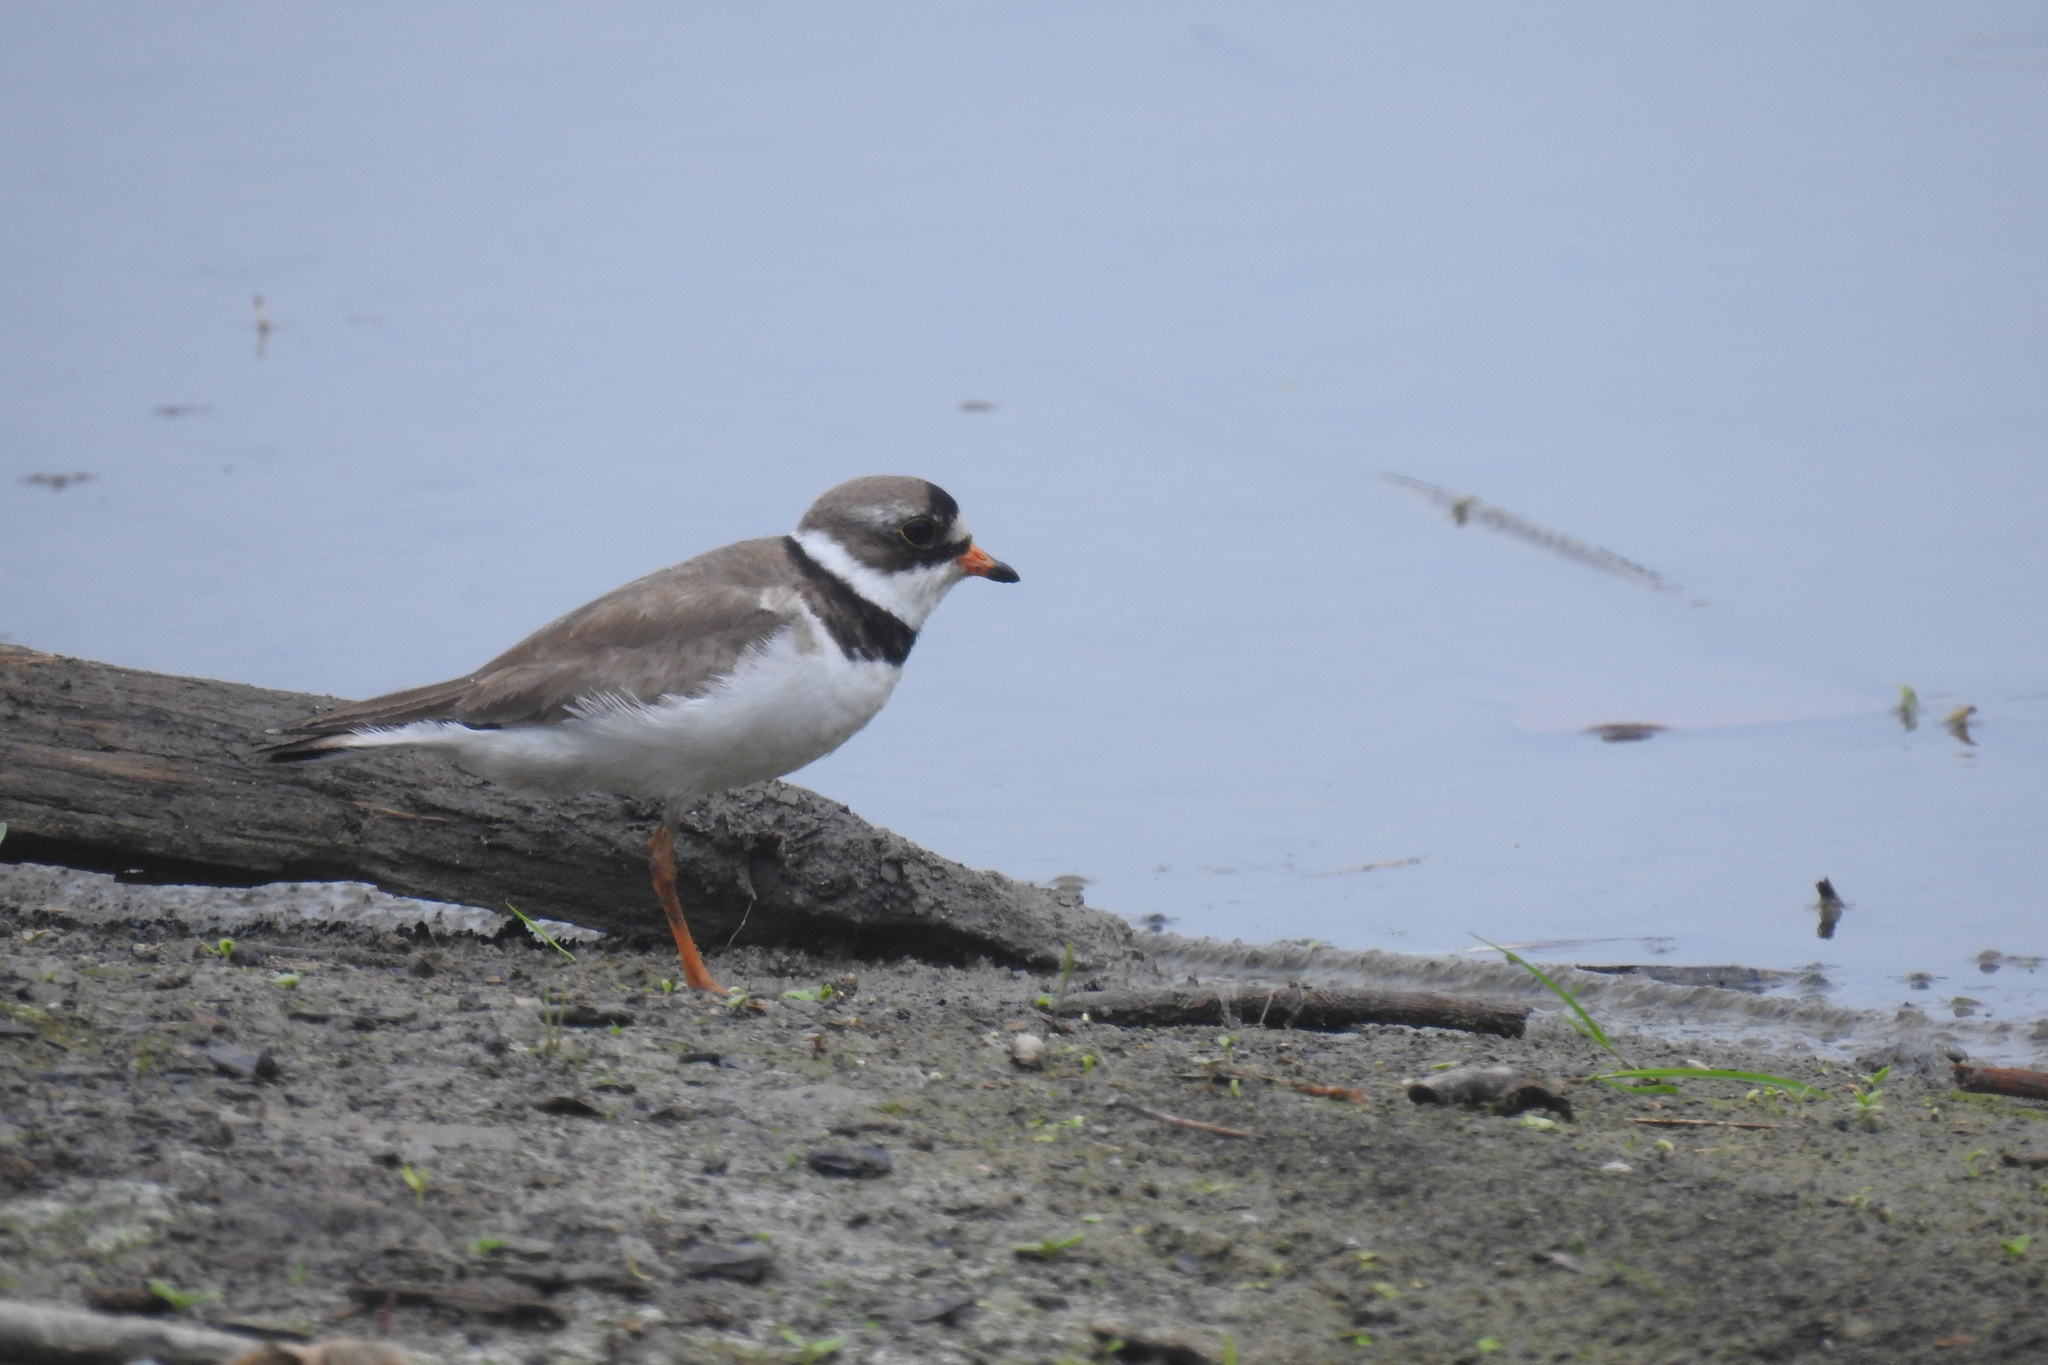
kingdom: Animalia
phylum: Chordata
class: Aves
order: Charadriiformes
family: Charadriidae
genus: Charadrius
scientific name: Charadrius semipalmatus
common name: Semipalmated plover
